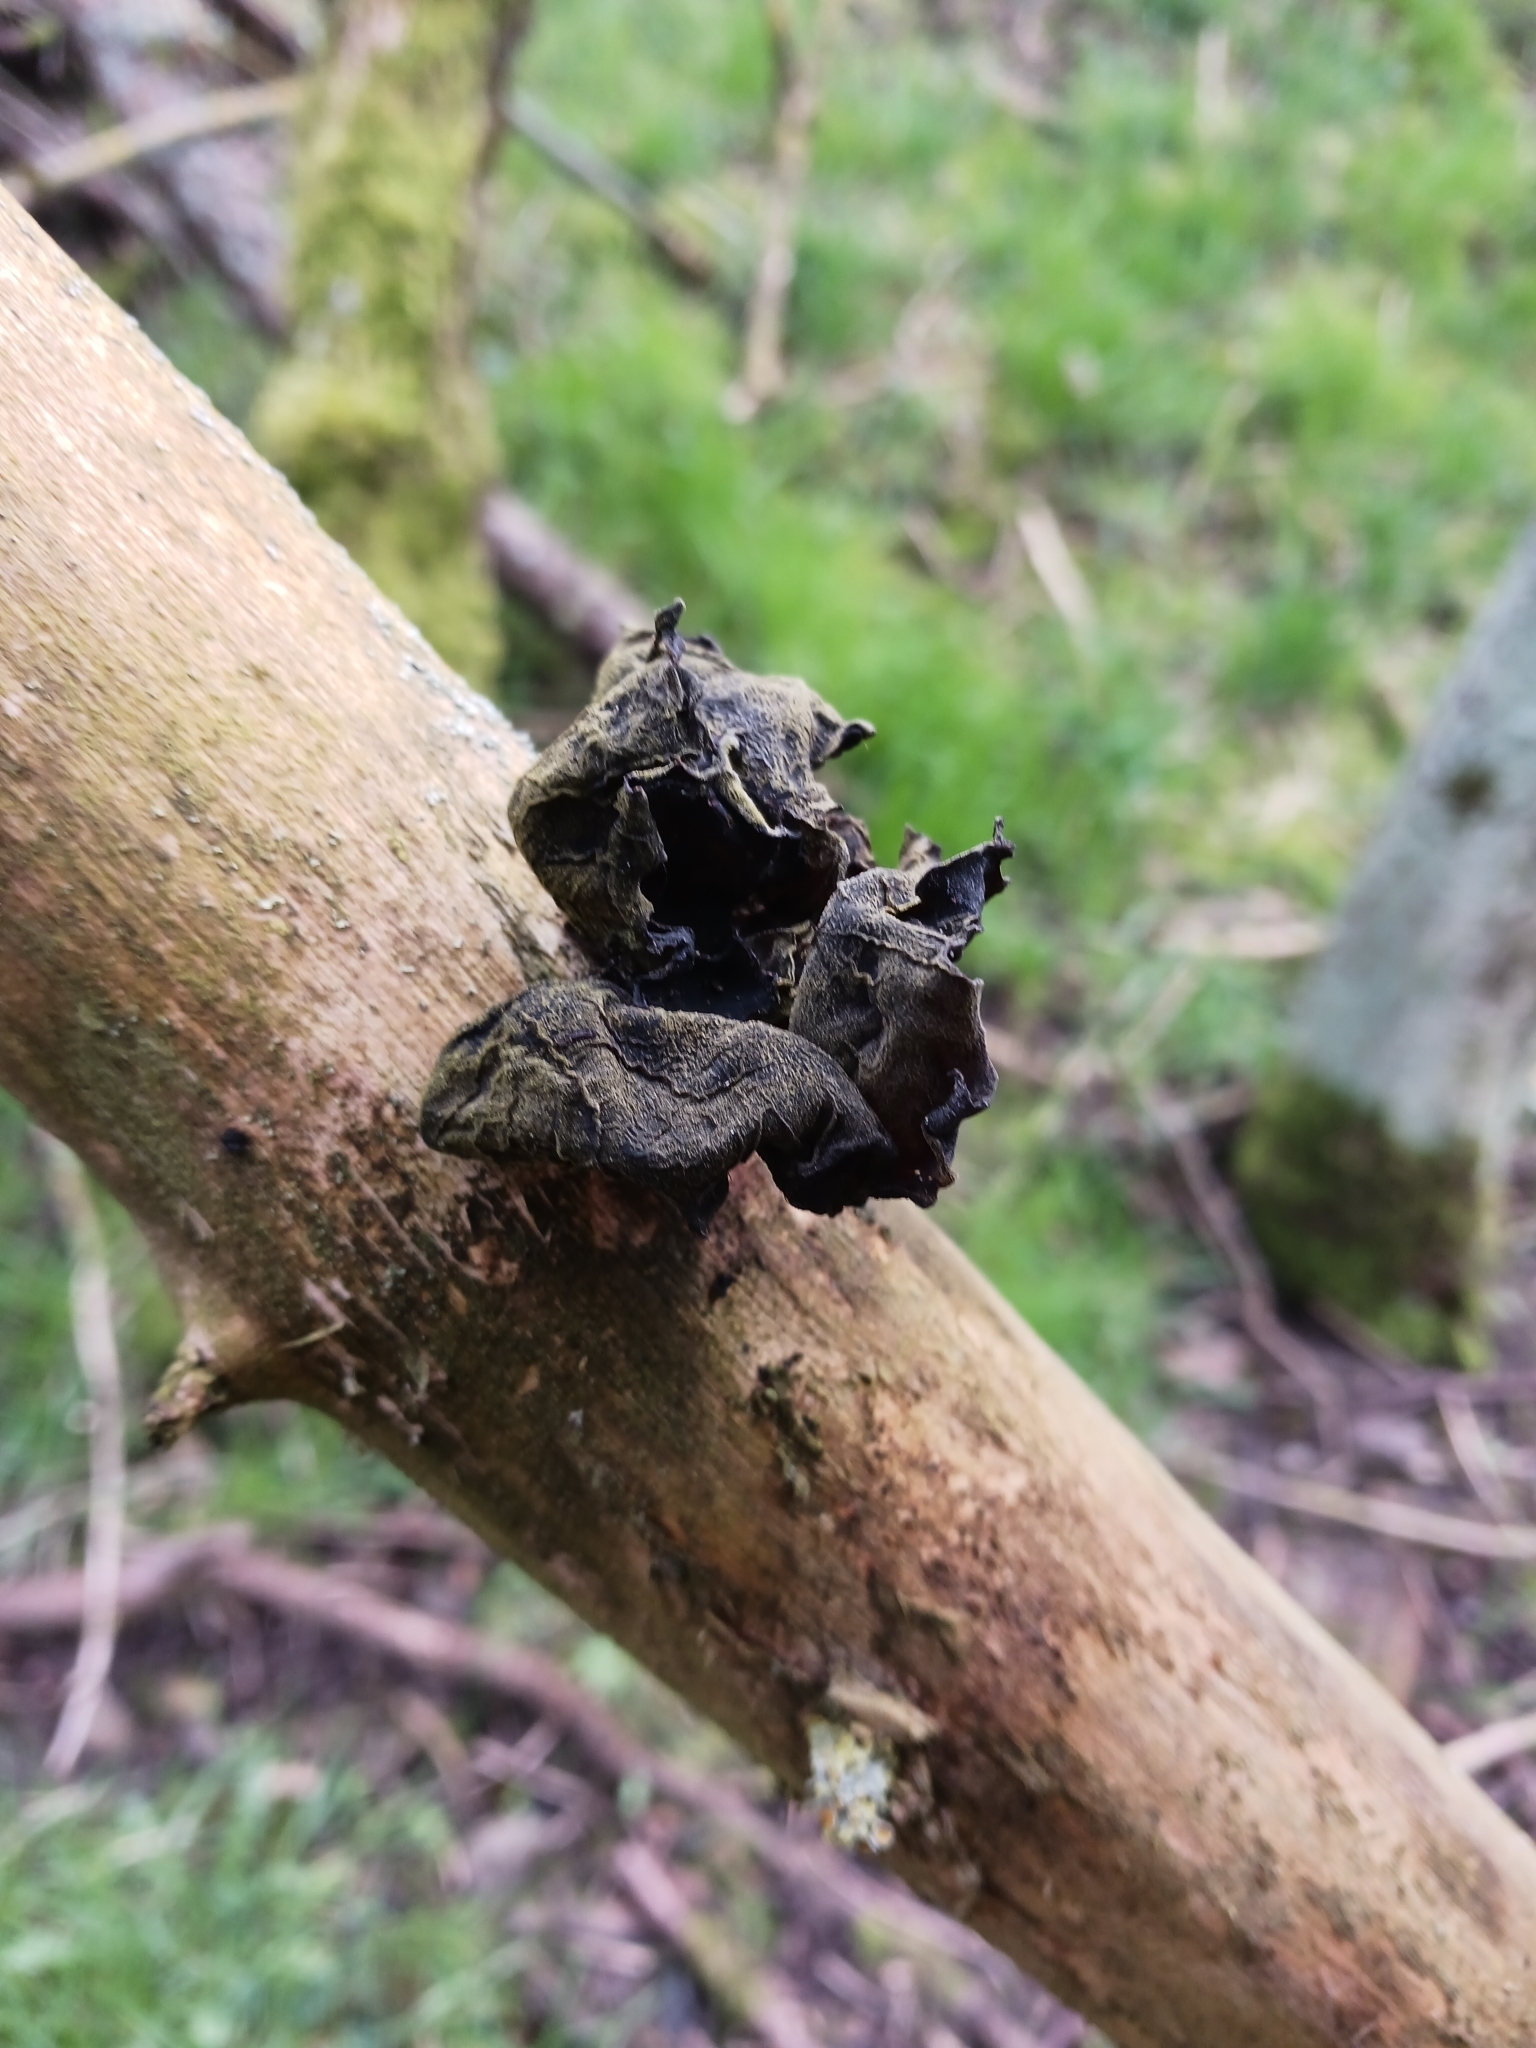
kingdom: Fungi
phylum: Basidiomycota
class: Agaricomycetes
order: Auriculariales
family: Auriculariaceae
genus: Auricularia
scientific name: Auricularia auricula-judae
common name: Jelly ear
